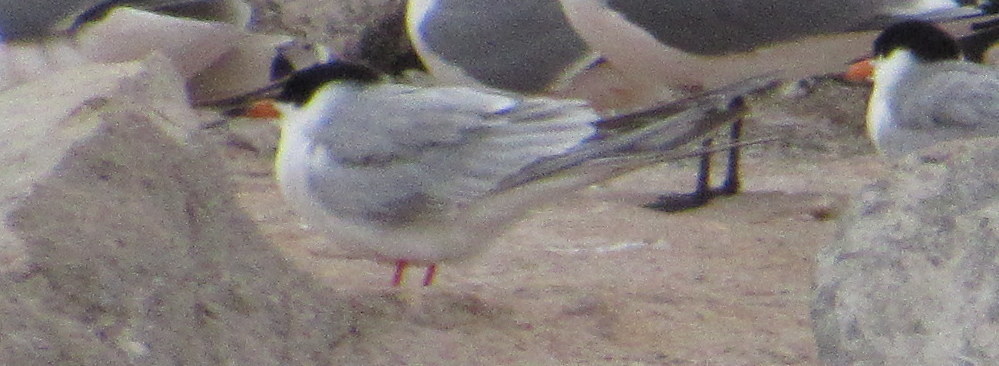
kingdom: Animalia
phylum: Chordata
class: Aves
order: Charadriiformes
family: Laridae
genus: Sterna
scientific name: Sterna forsteri
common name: Forster's tern
